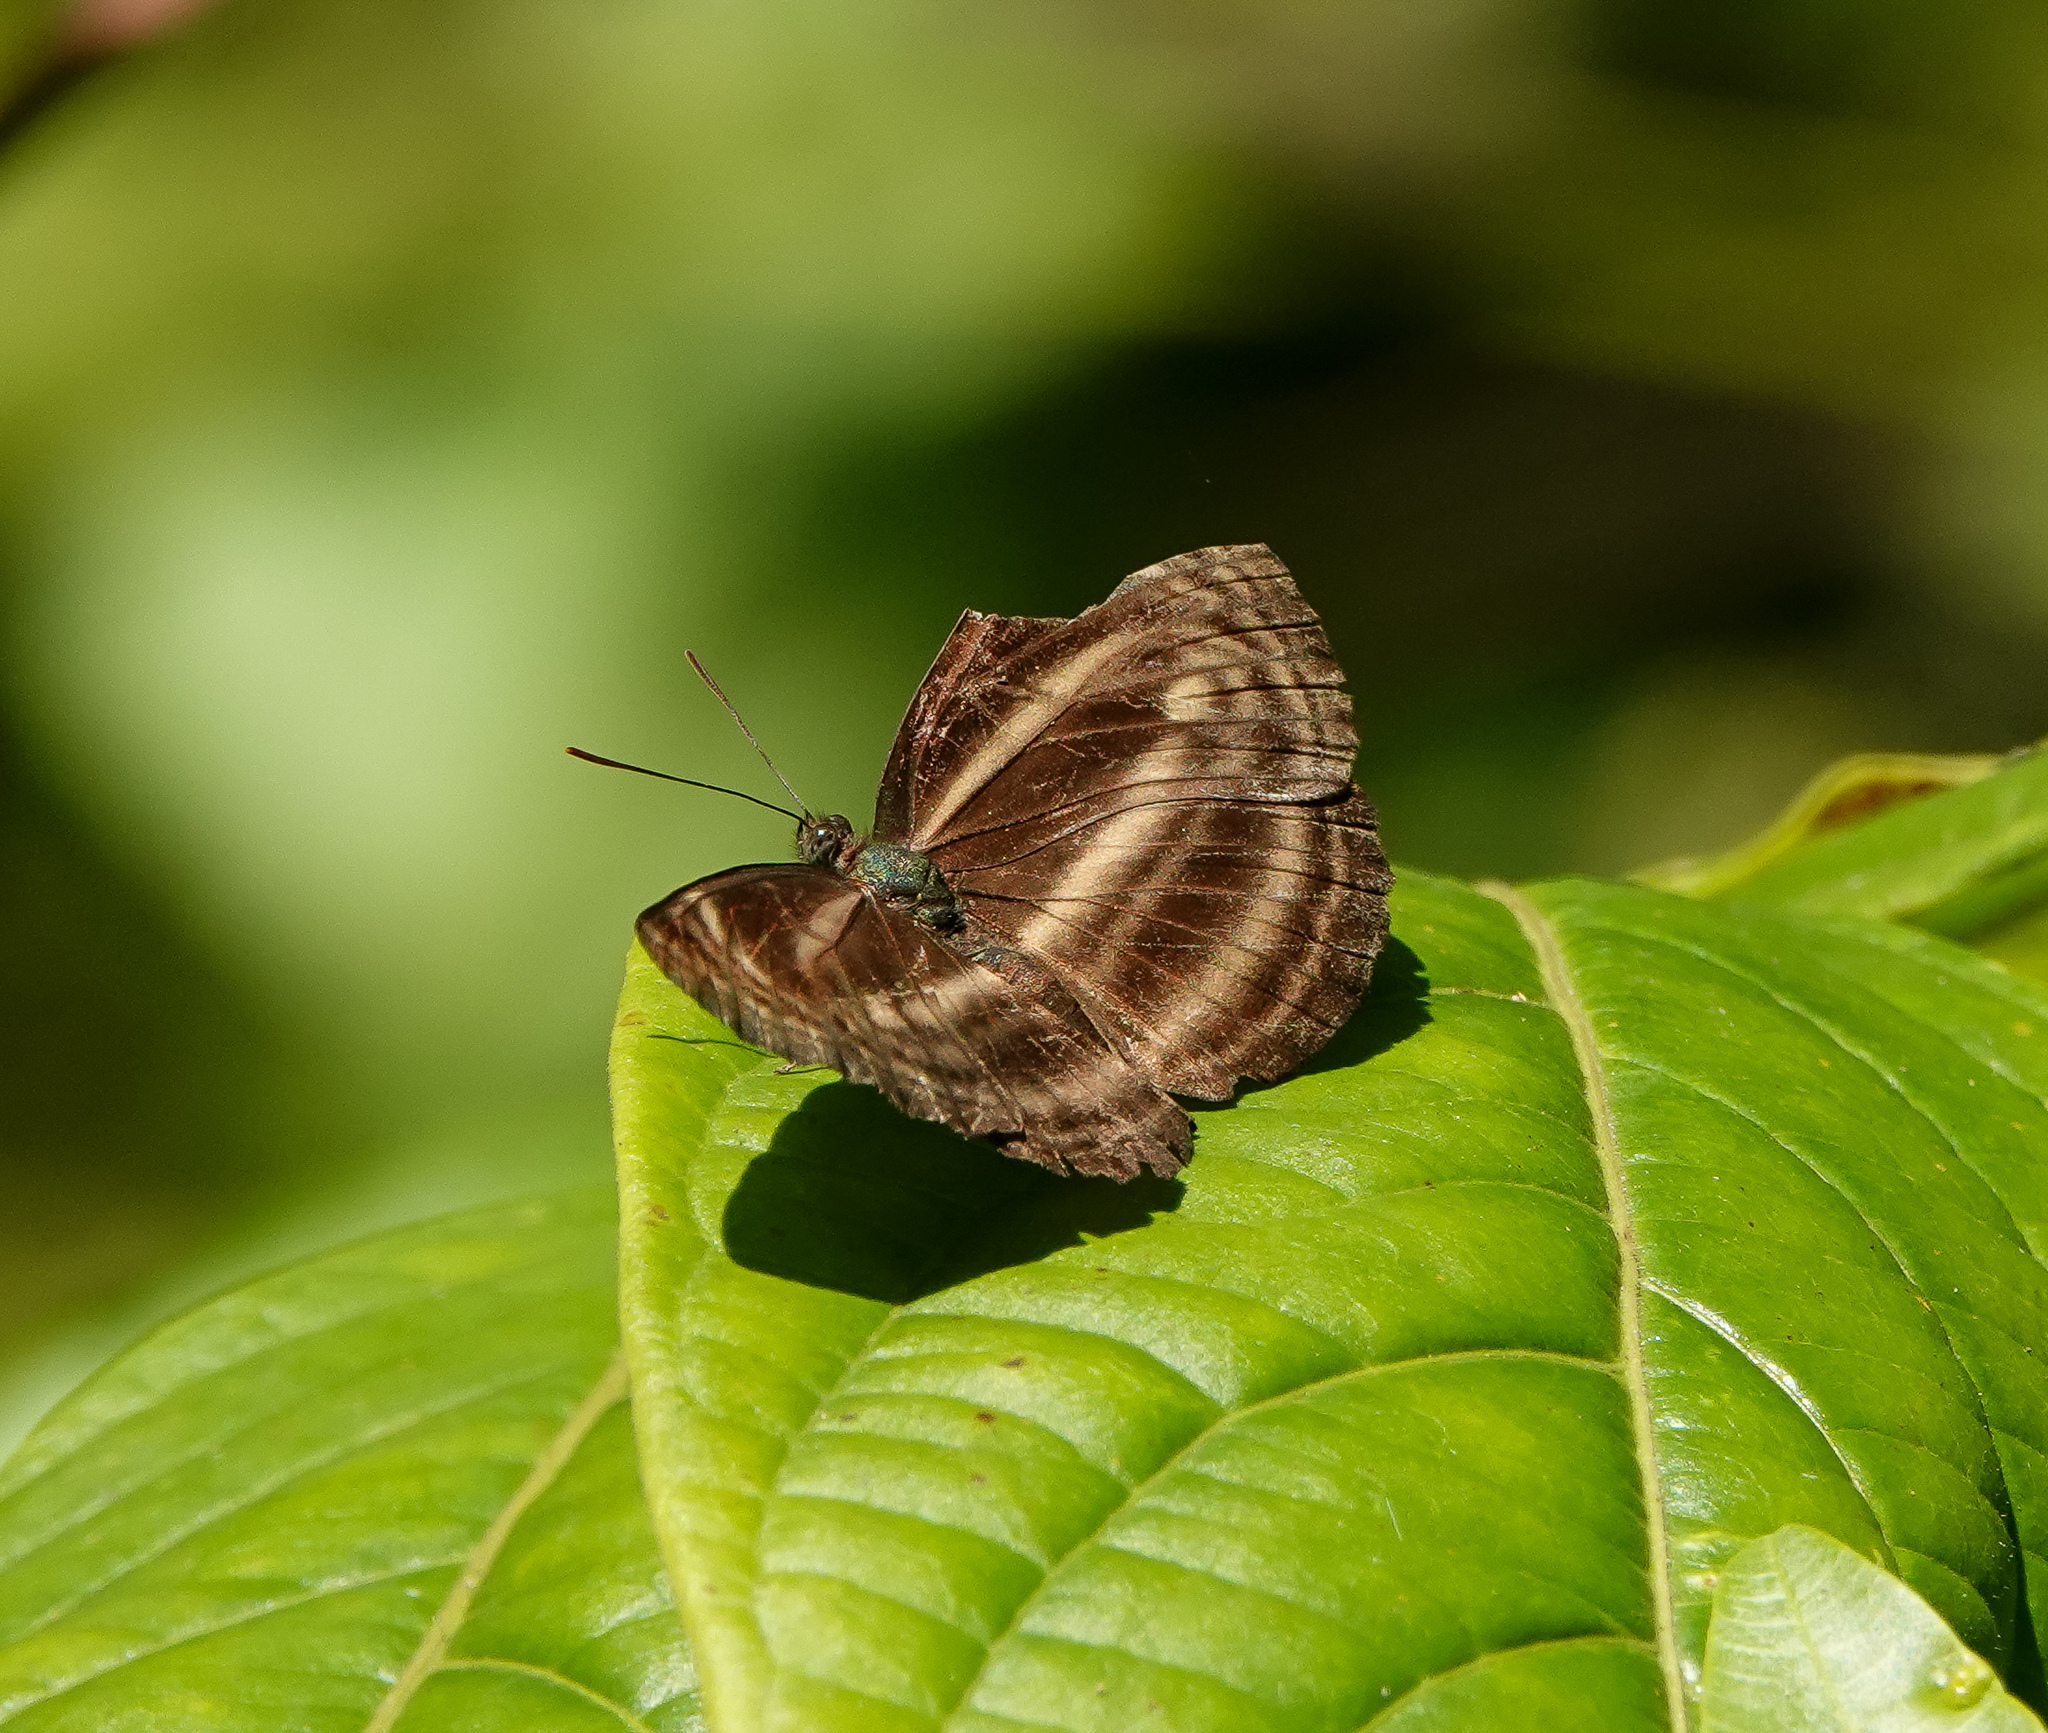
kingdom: Animalia
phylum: Arthropoda
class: Insecta
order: Lepidoptera
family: Nymphalidae
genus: Neptis
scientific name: Neptis harita
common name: Chocolate sailer
